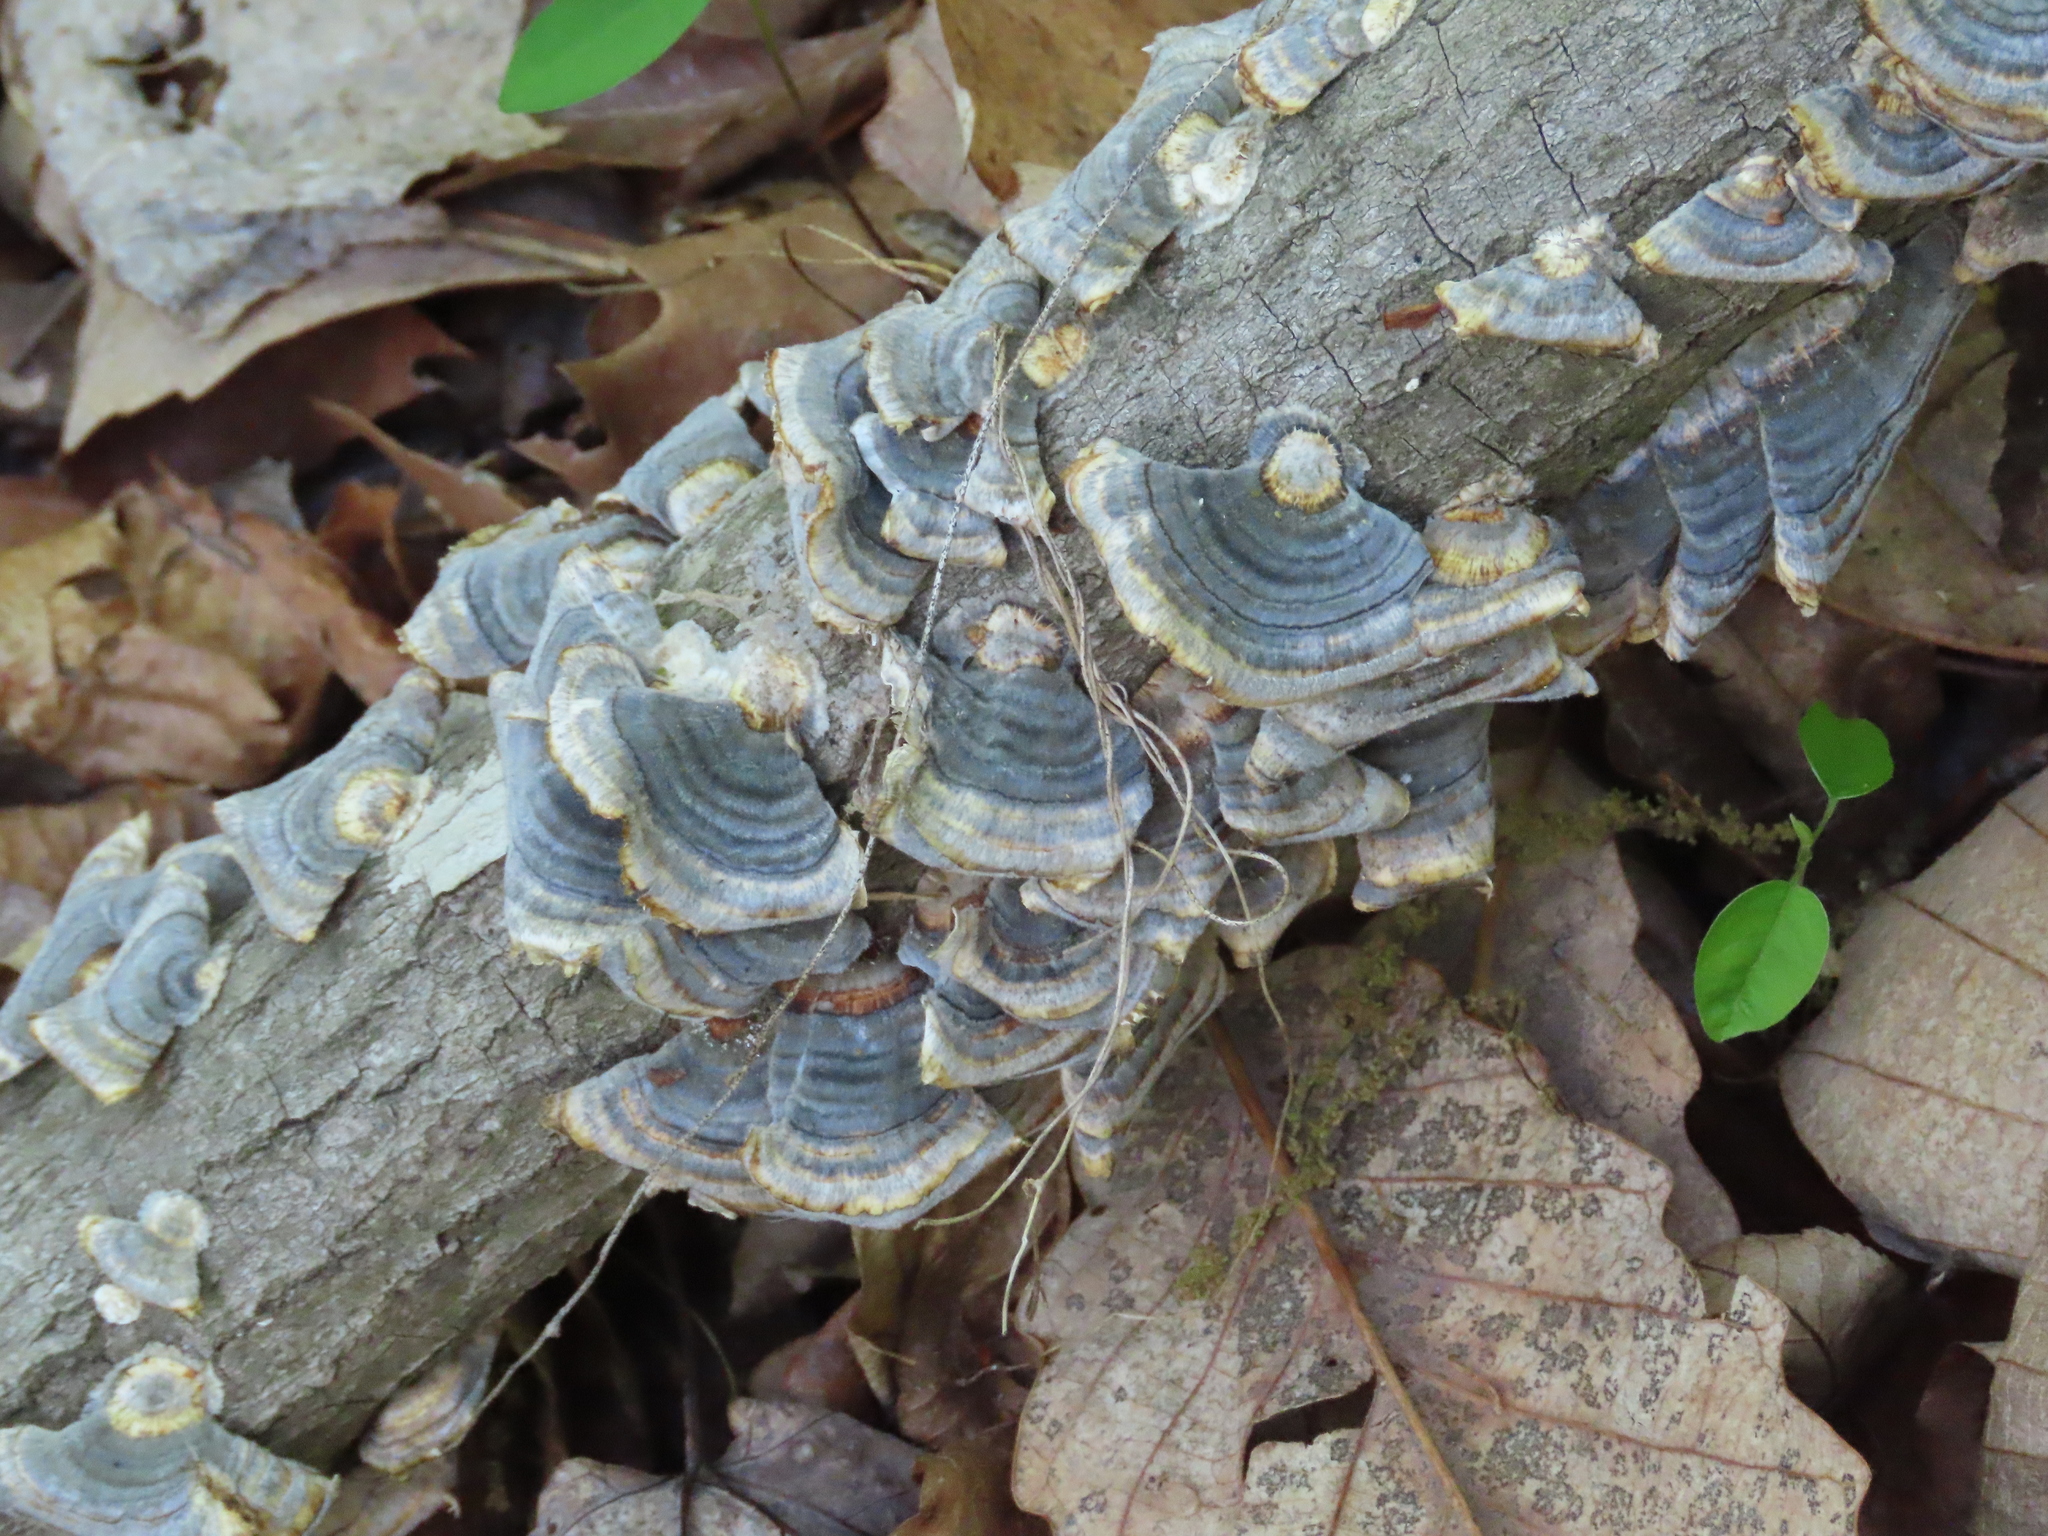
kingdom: Fungi
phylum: Basidiomycota
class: Agaricomycetes
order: Polyporales
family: Polyporaceae
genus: Trametes
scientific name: Trametes versicolor
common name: Turkeytail
